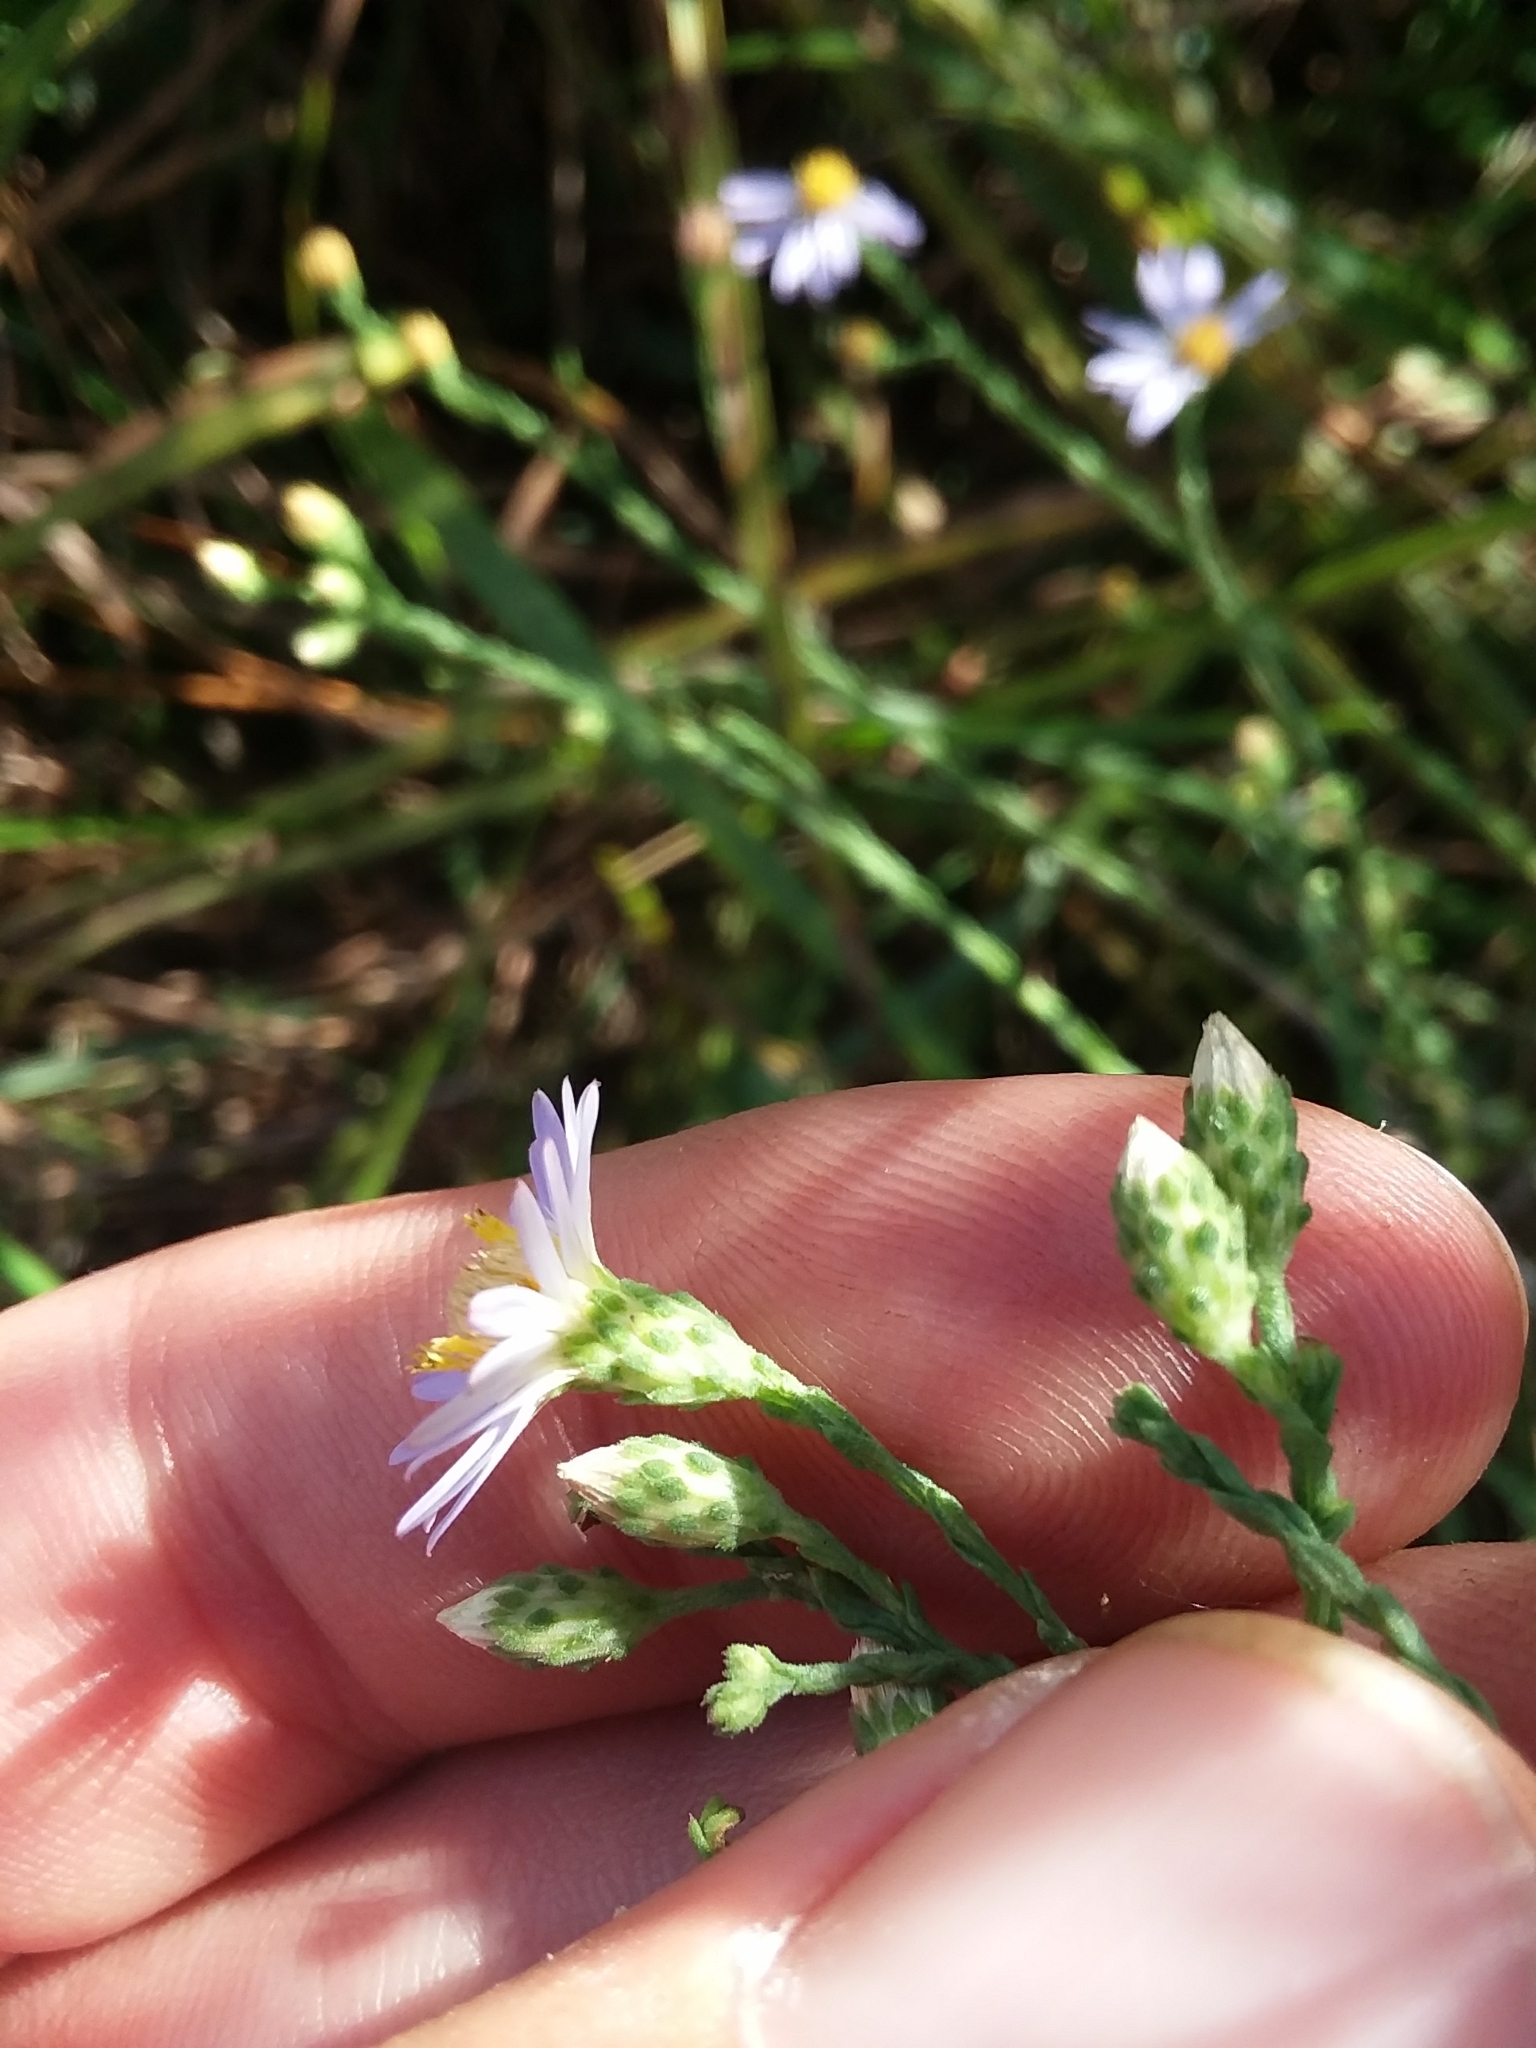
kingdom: Plantae
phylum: Tracheophyta
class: Magnoliopsida
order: Asterales
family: Asteraceae
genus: Symphyotrichum
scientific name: Symphyotrichum adnatum
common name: Scale-leaf aster
